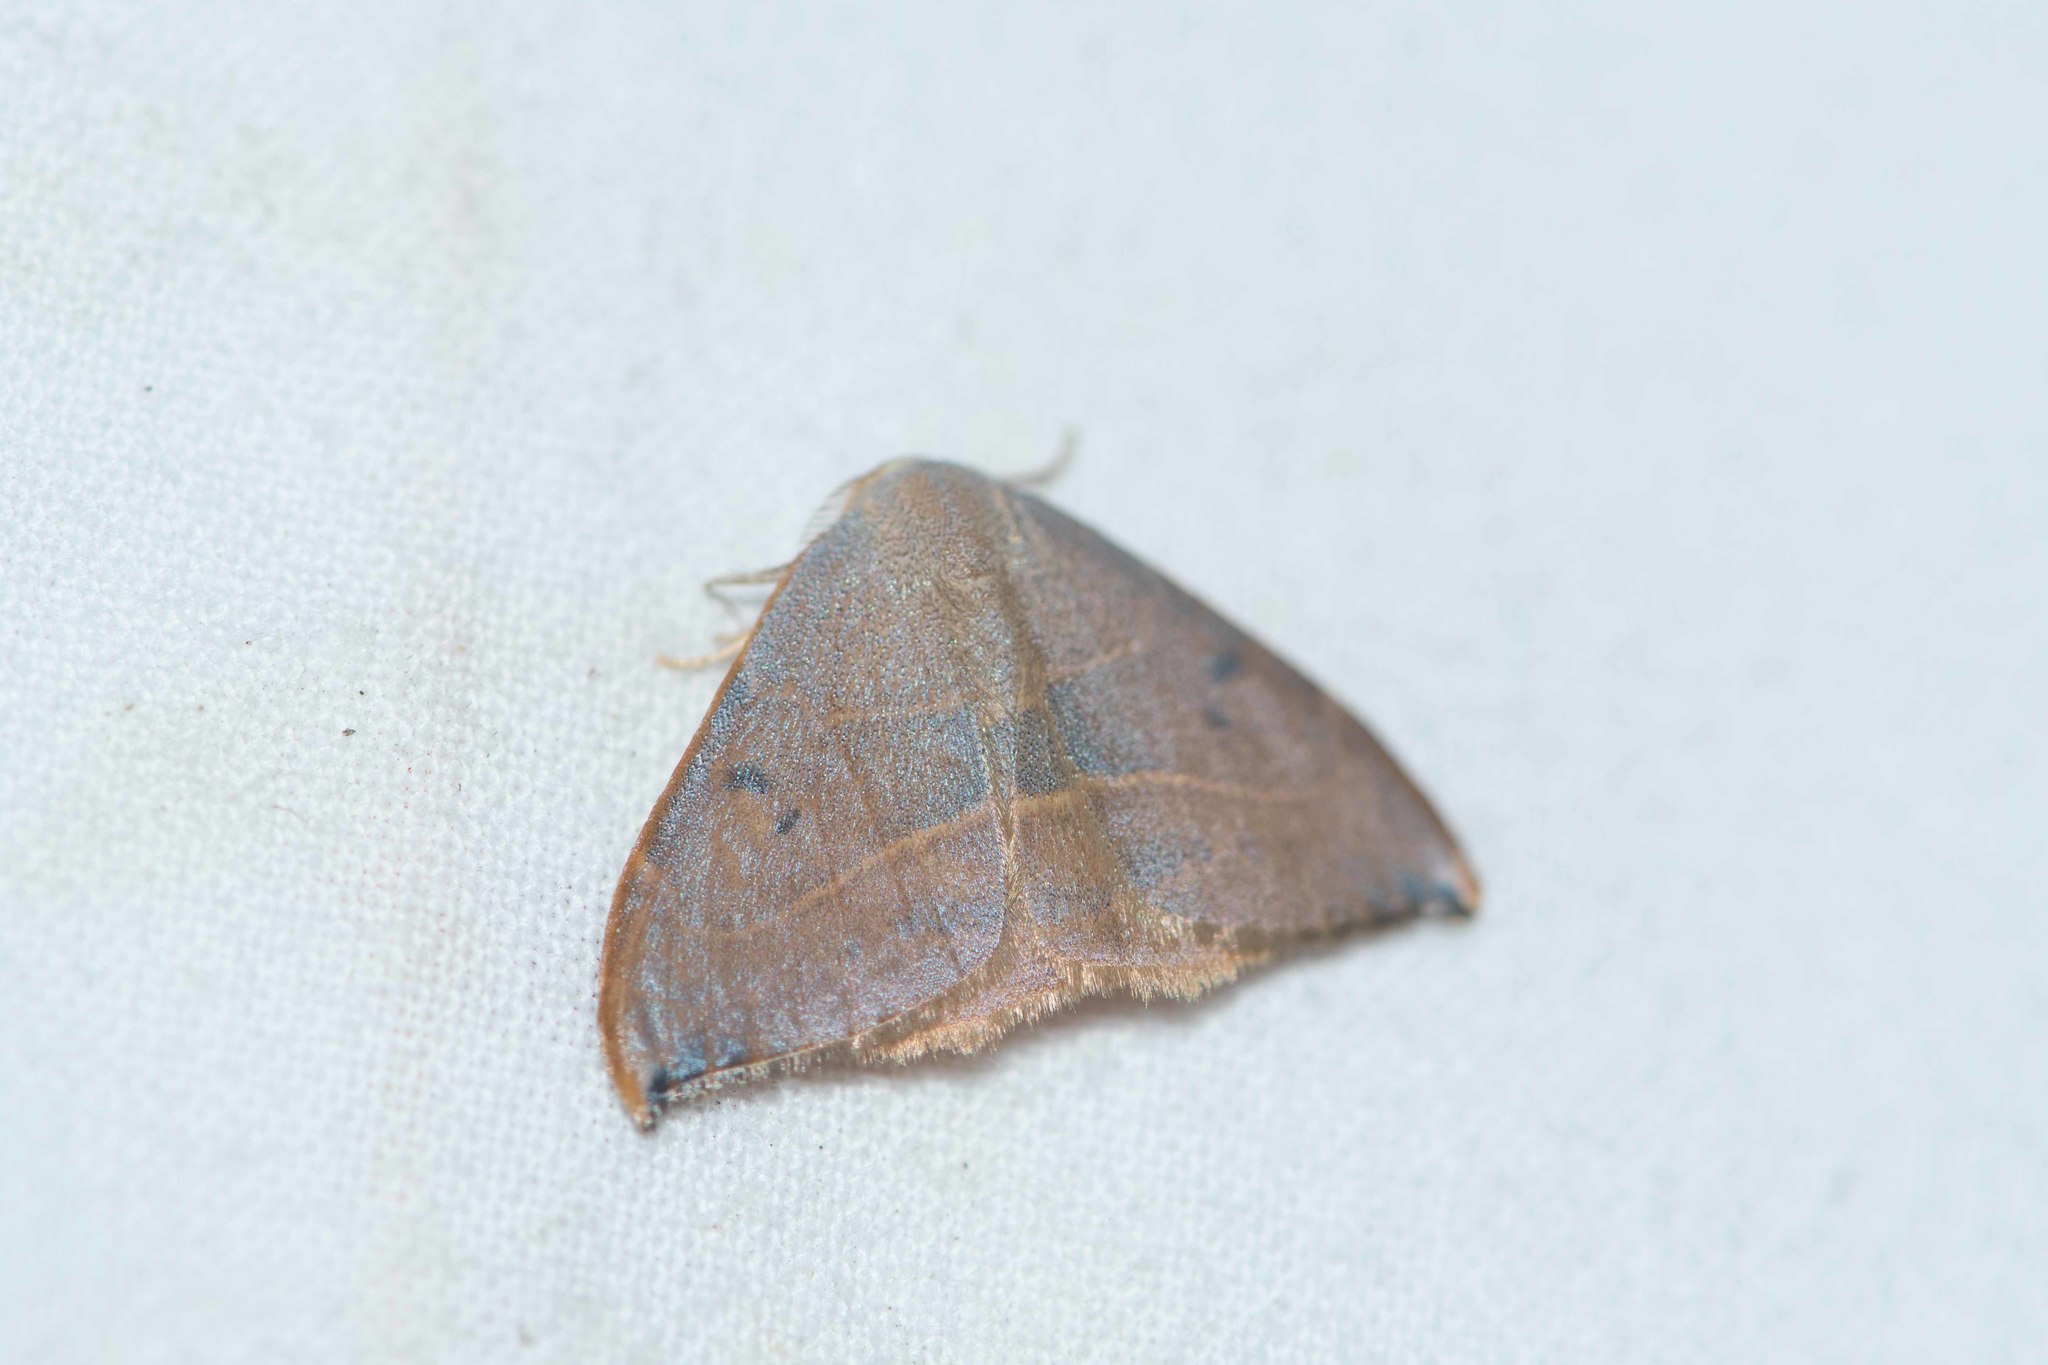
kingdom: Animalia
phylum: Arthropoda
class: Insecta
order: Lepidoptera
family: Drepanidae
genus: Watsonalla
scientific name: Watsonalla binaria
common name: Oak hook-tip
